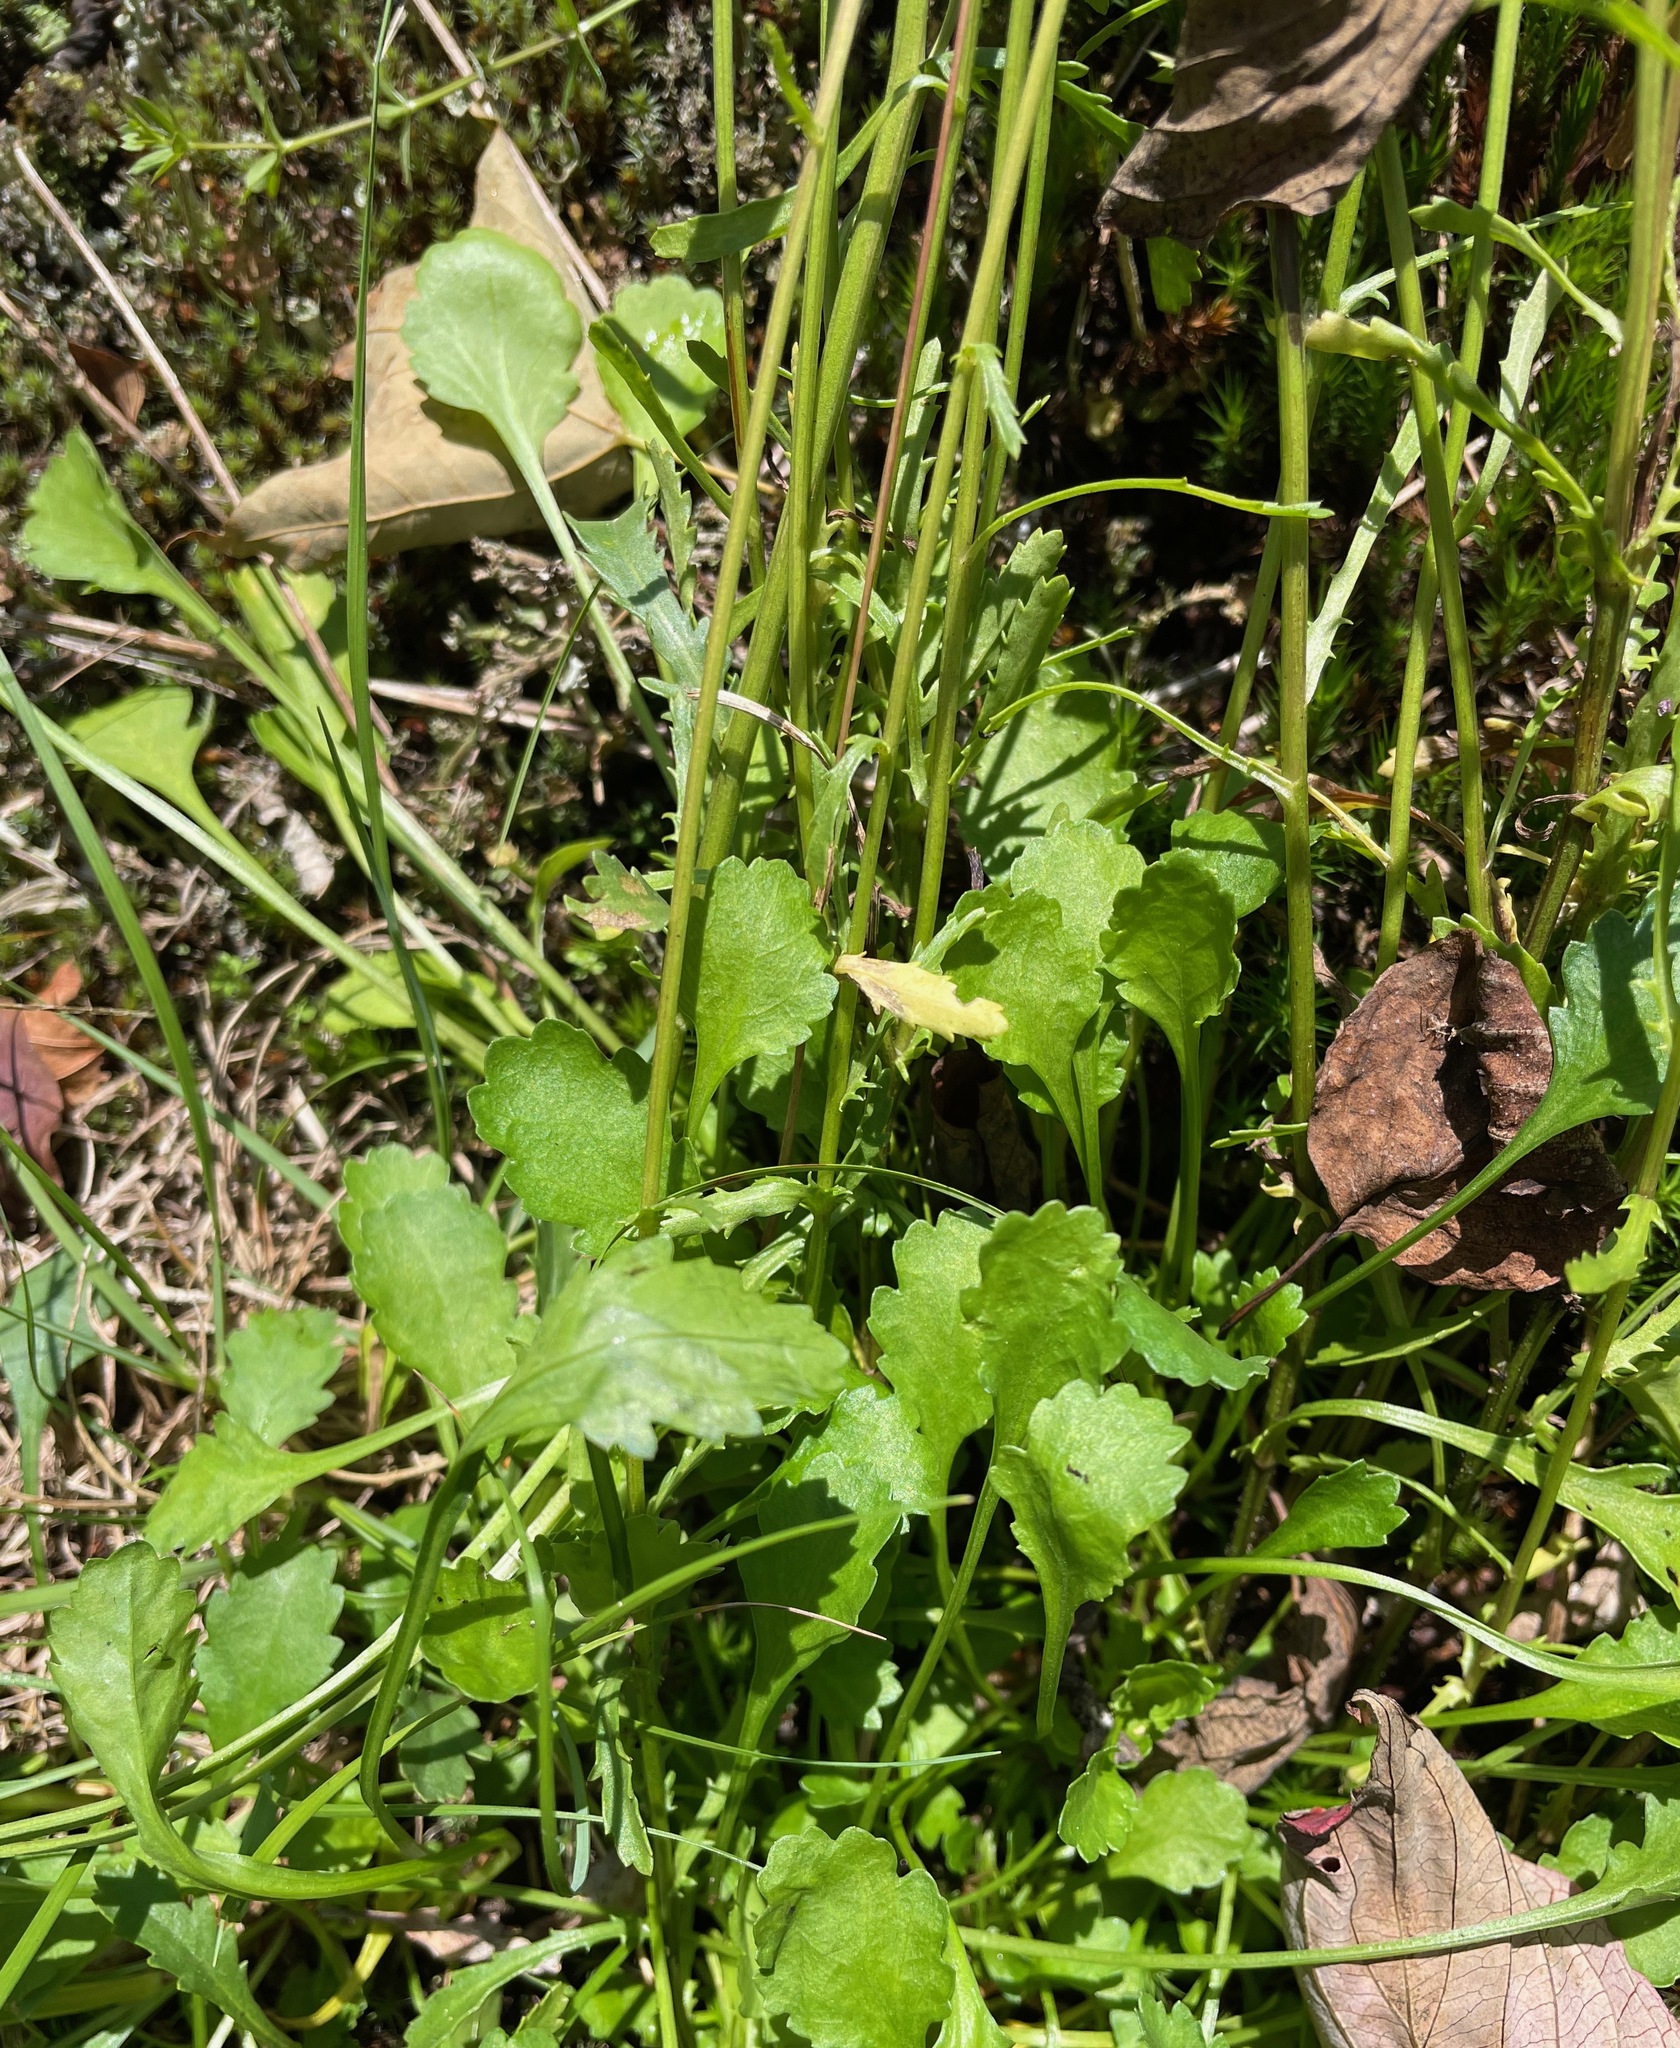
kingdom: Plantae
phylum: Tracheophyta
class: Magnoliopsida
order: Asterales
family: Asteraceae
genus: Leucanthemum
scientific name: Leucanthemum vulgare
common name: Oxeye daisy
